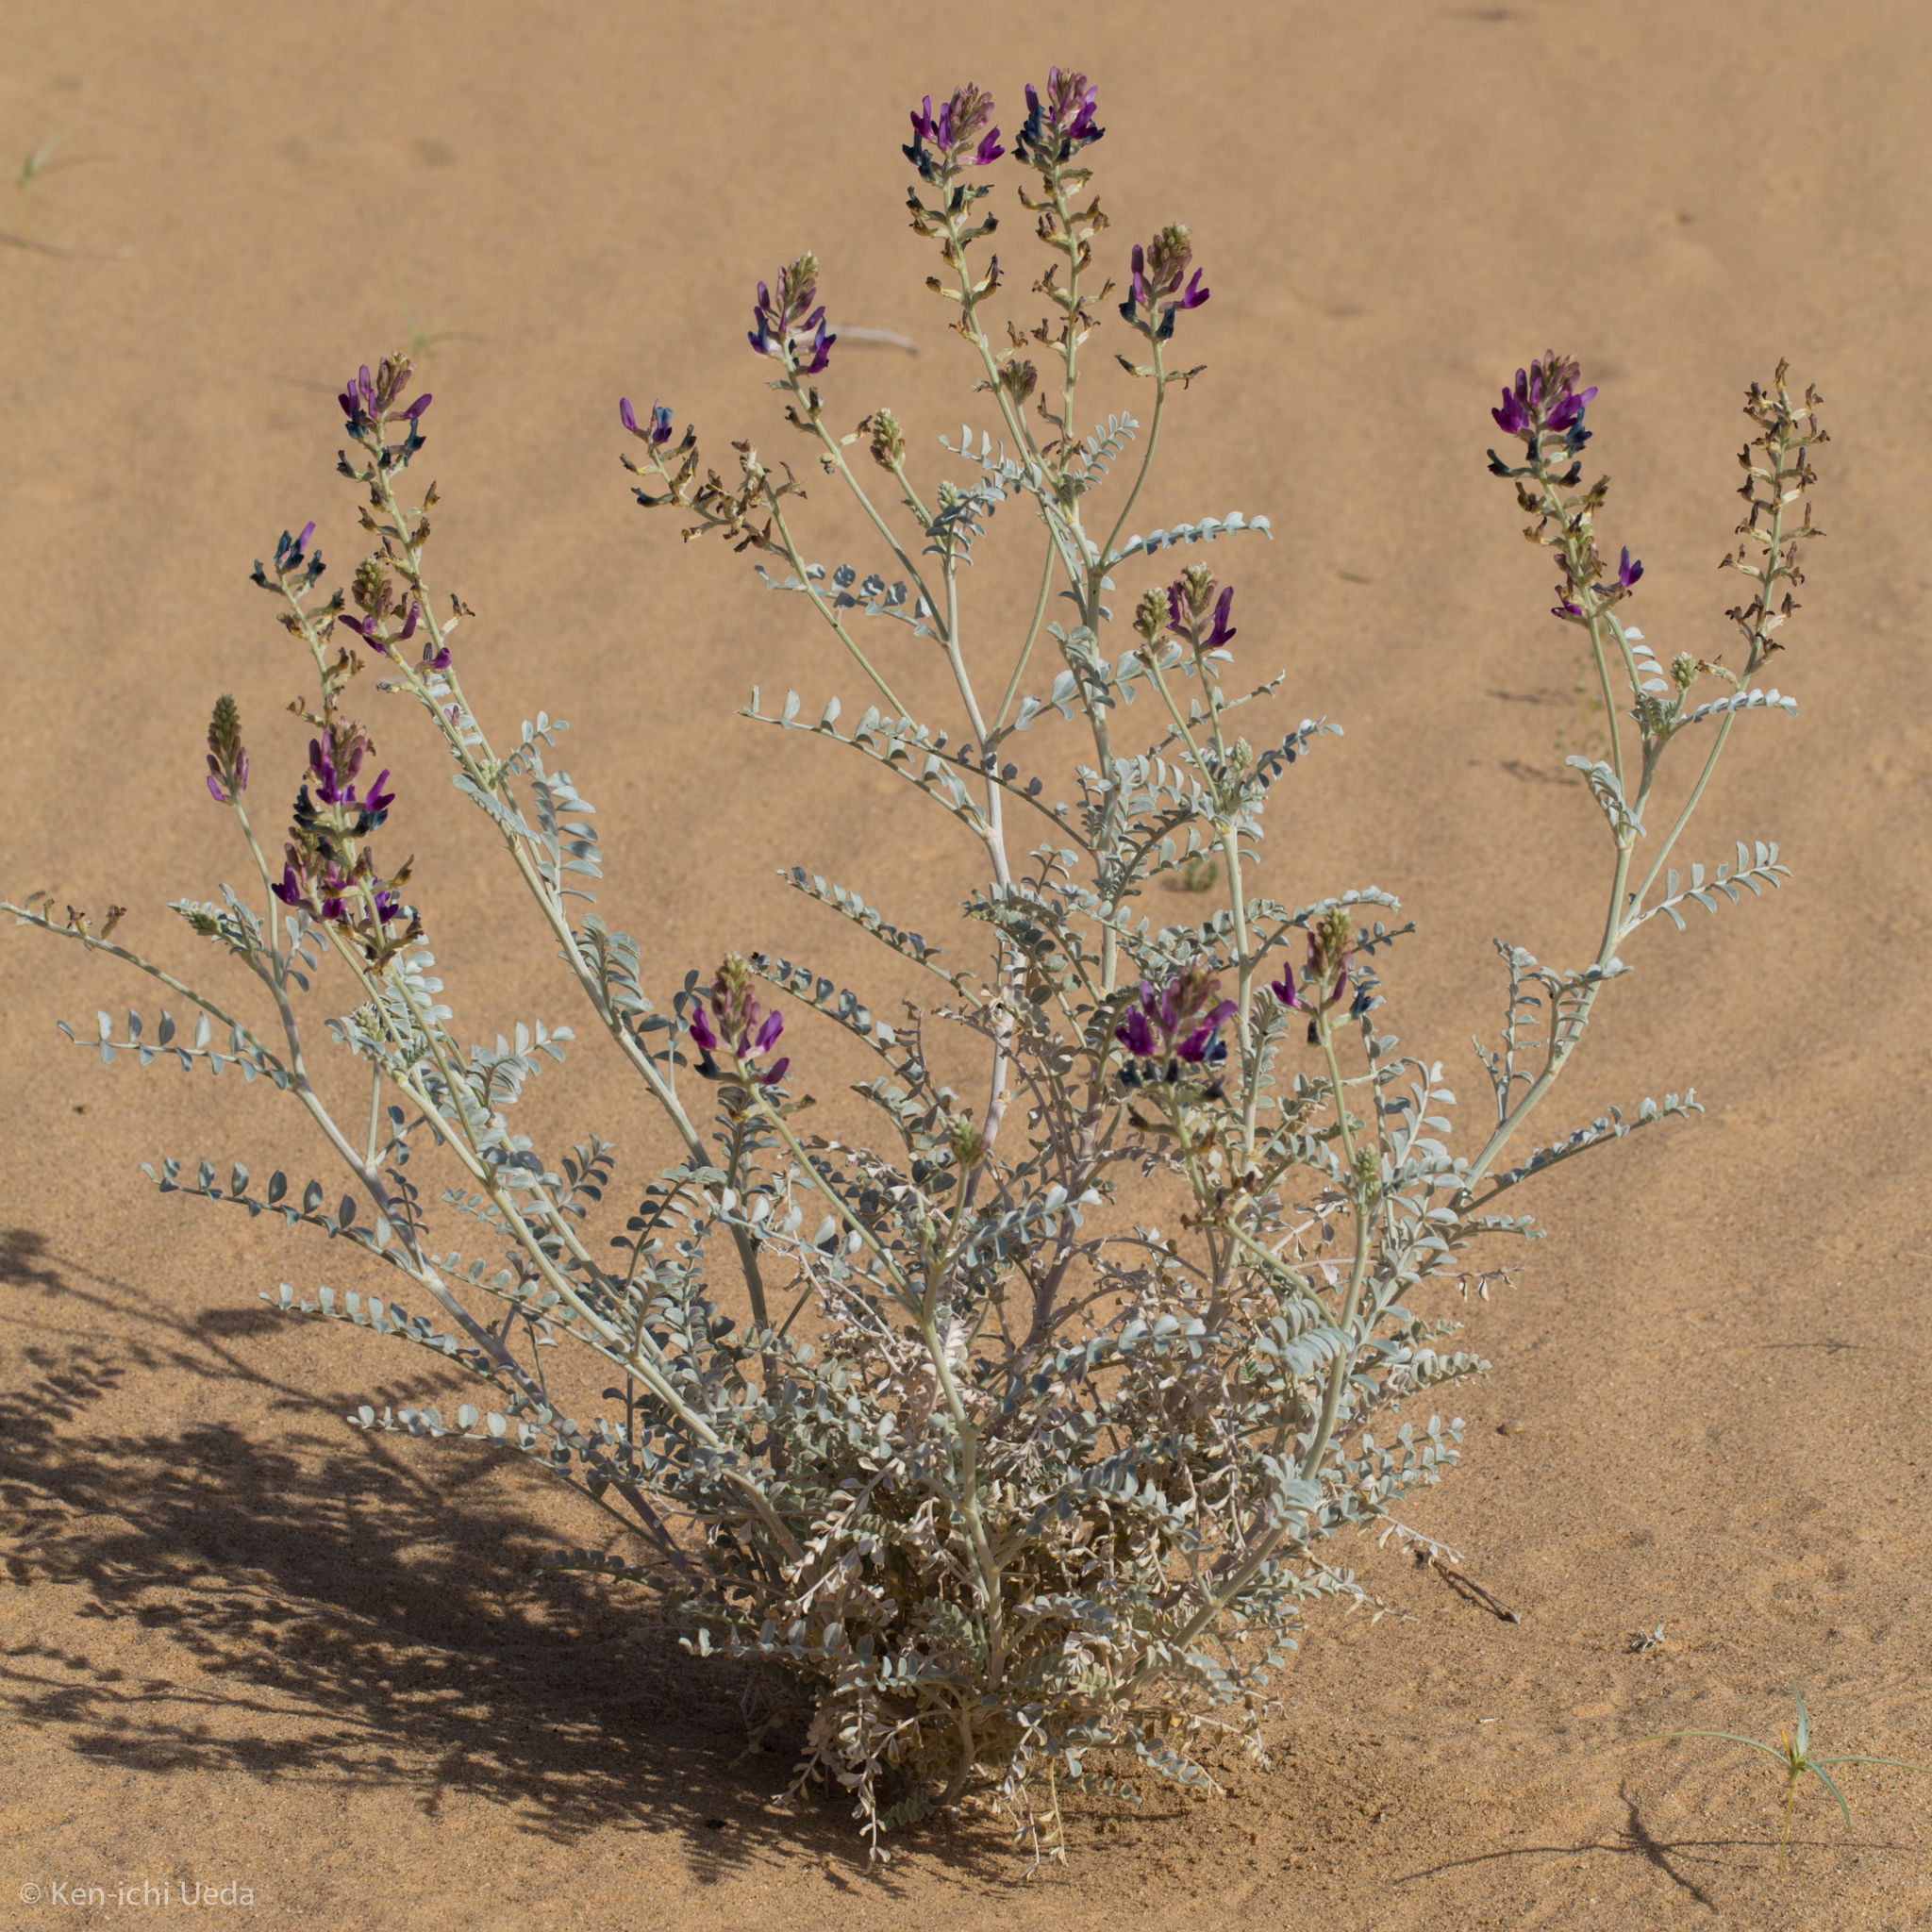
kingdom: Plantae
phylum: Tracheophyta
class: Magnoliopsida
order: Fabales
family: Fabaceae
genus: Astragalus
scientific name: Astragalus lentiginosus
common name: Freckled milkvetch
